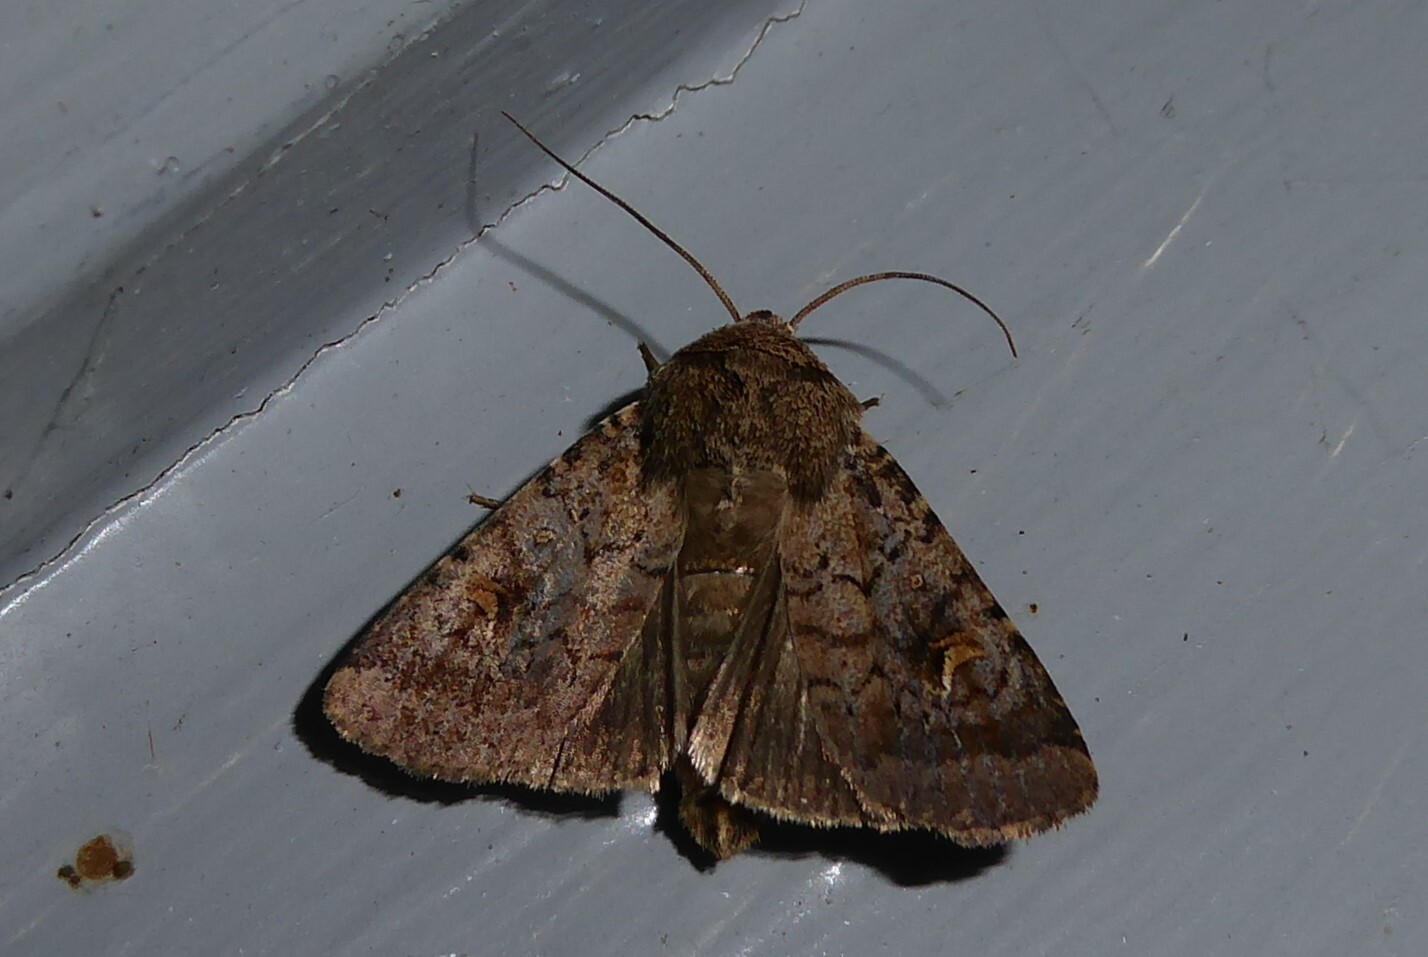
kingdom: Animalia
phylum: Arthropoda
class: Insecta
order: Lepidoptera
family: Noctuidae
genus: Proteuxoa
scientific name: Proteuxoa tetronycha
